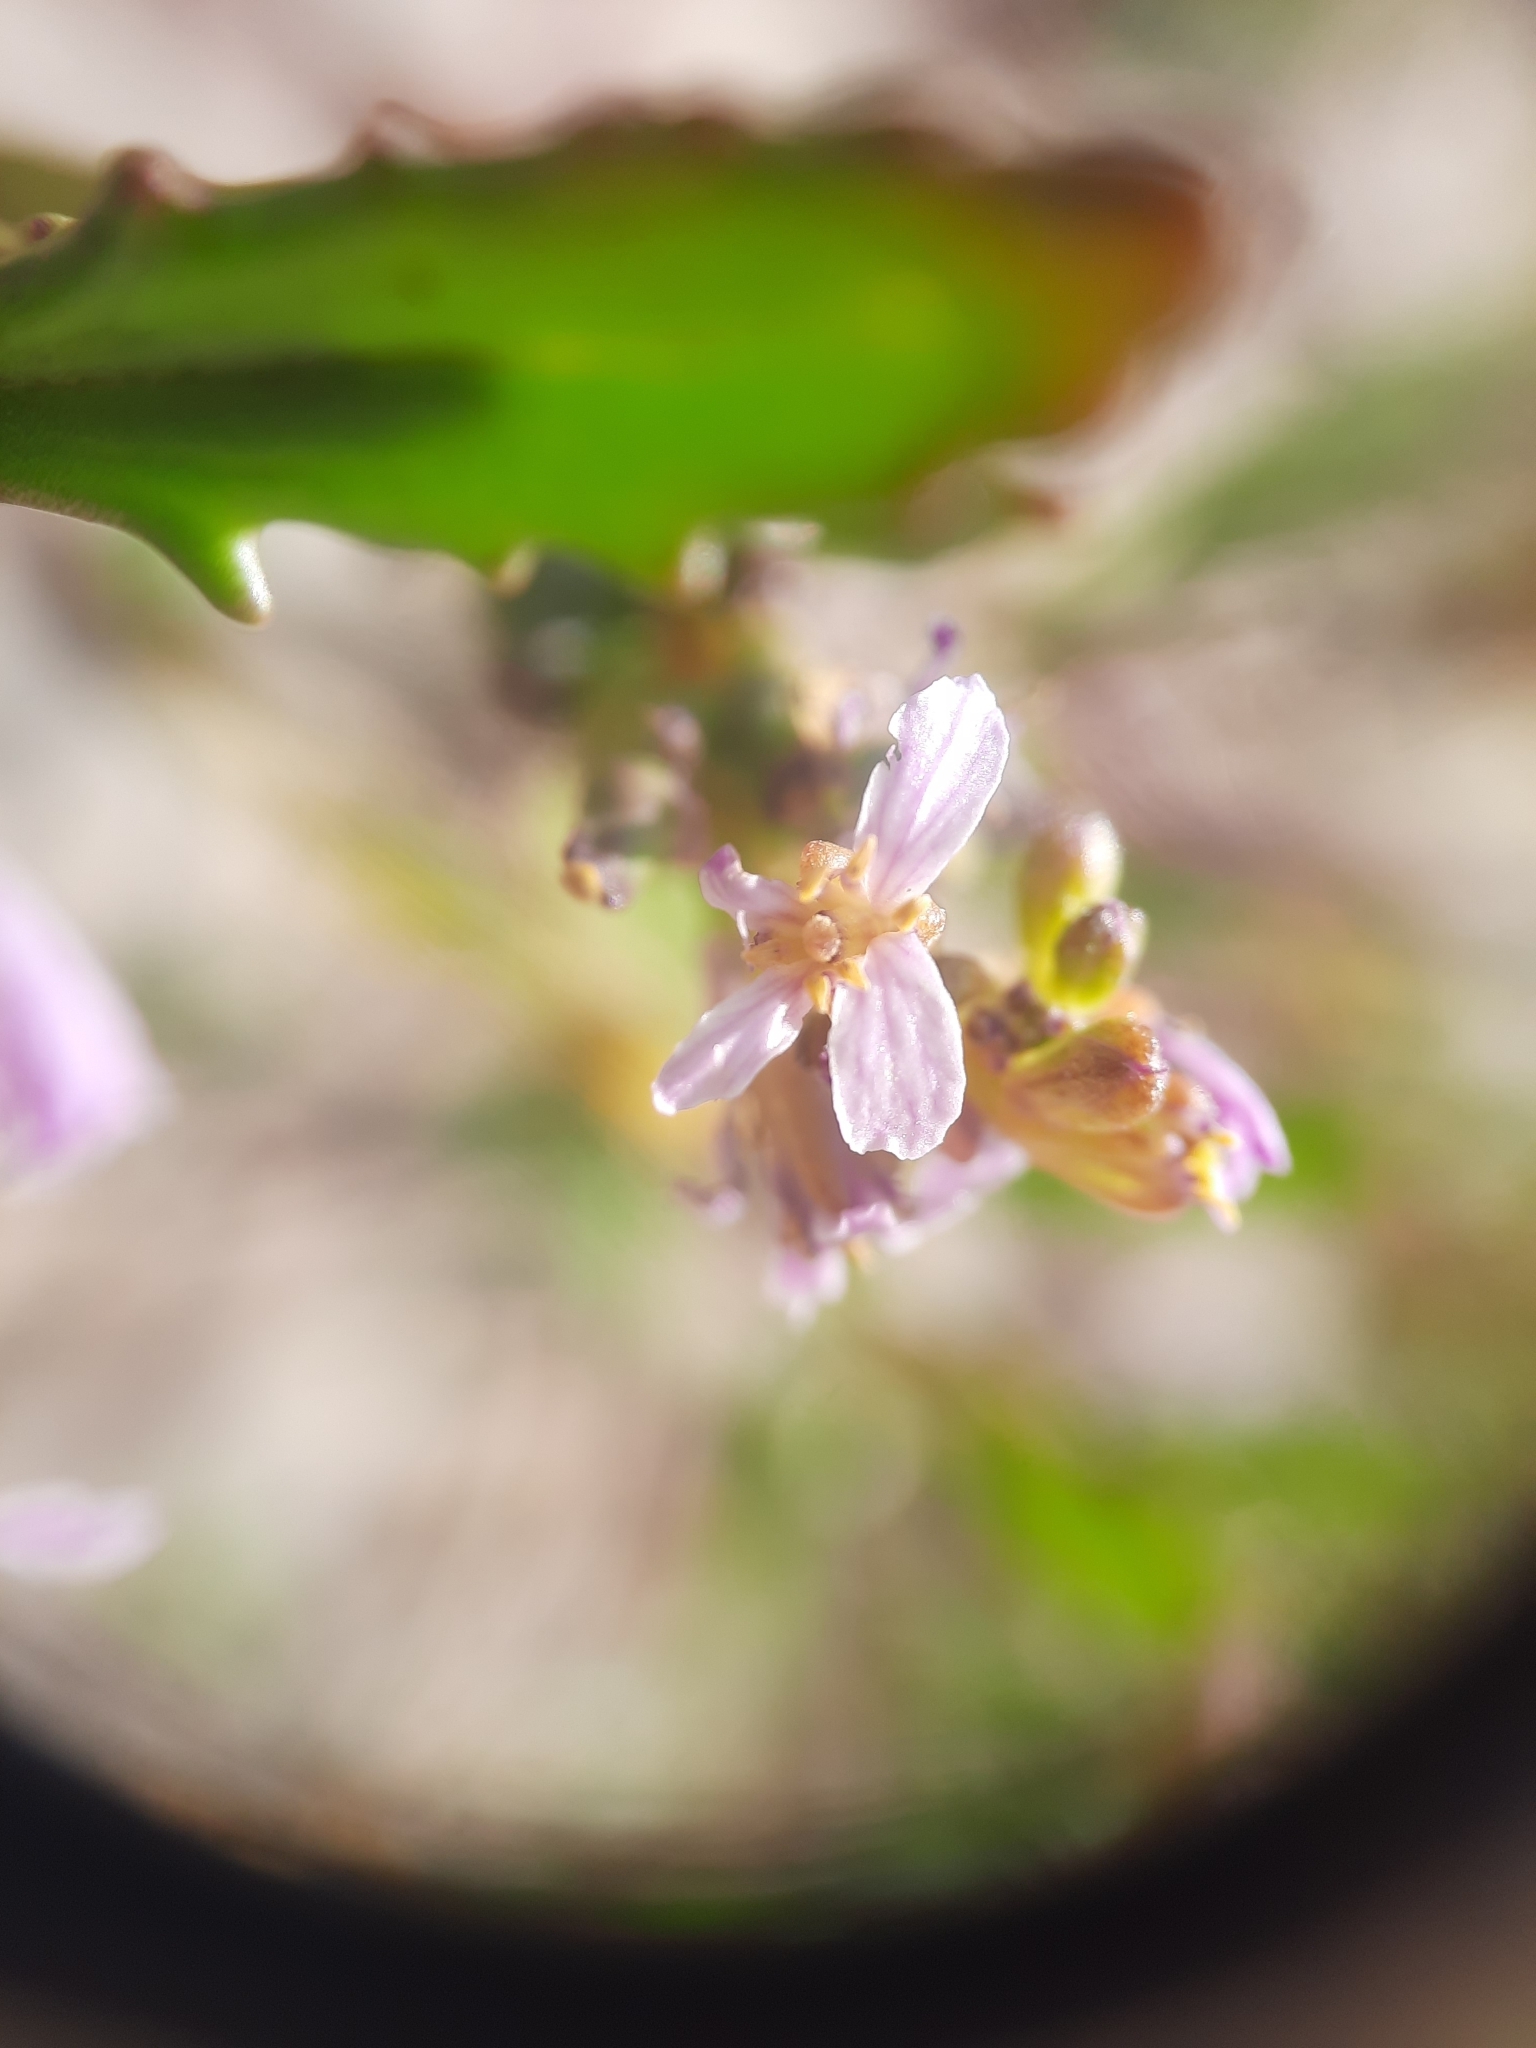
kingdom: Plantae
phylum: Tracheophyta
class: Magnoliopsida
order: Brassicales
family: Brassicaceae
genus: Cakile
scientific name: Cakile edentula
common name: American sea rocket
